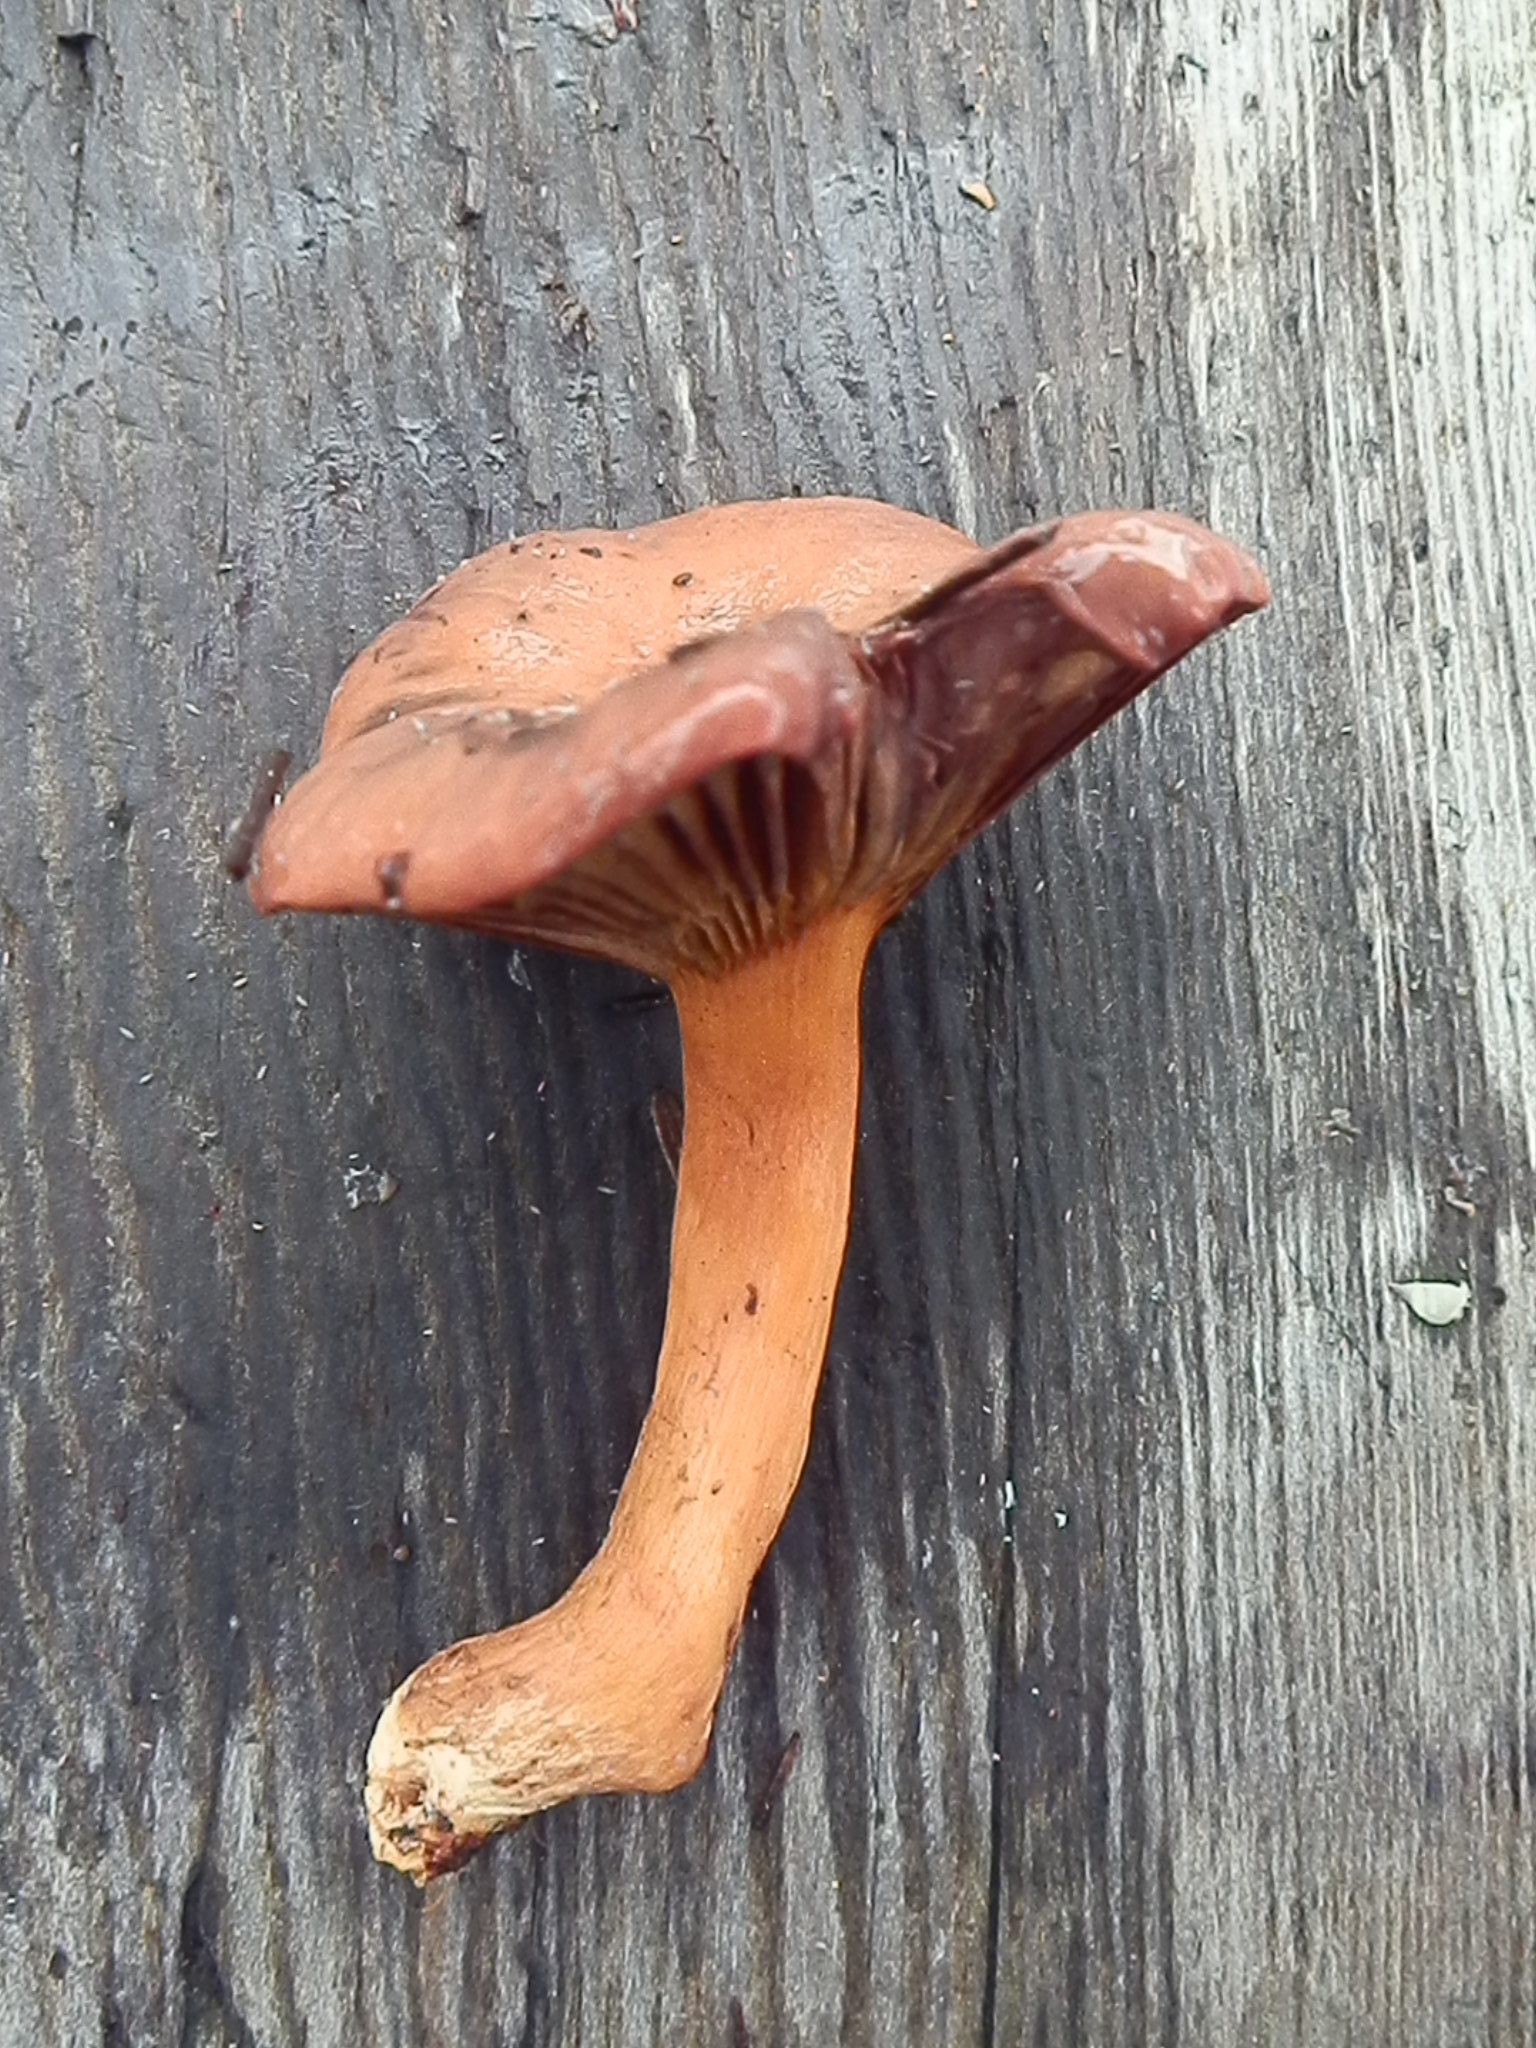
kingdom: Fungi
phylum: Basidiomycota
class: Agaricomycetes
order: Boletales
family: Gomphidiaceae
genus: Chroogomphus
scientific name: Chroogomphus vinicolor
